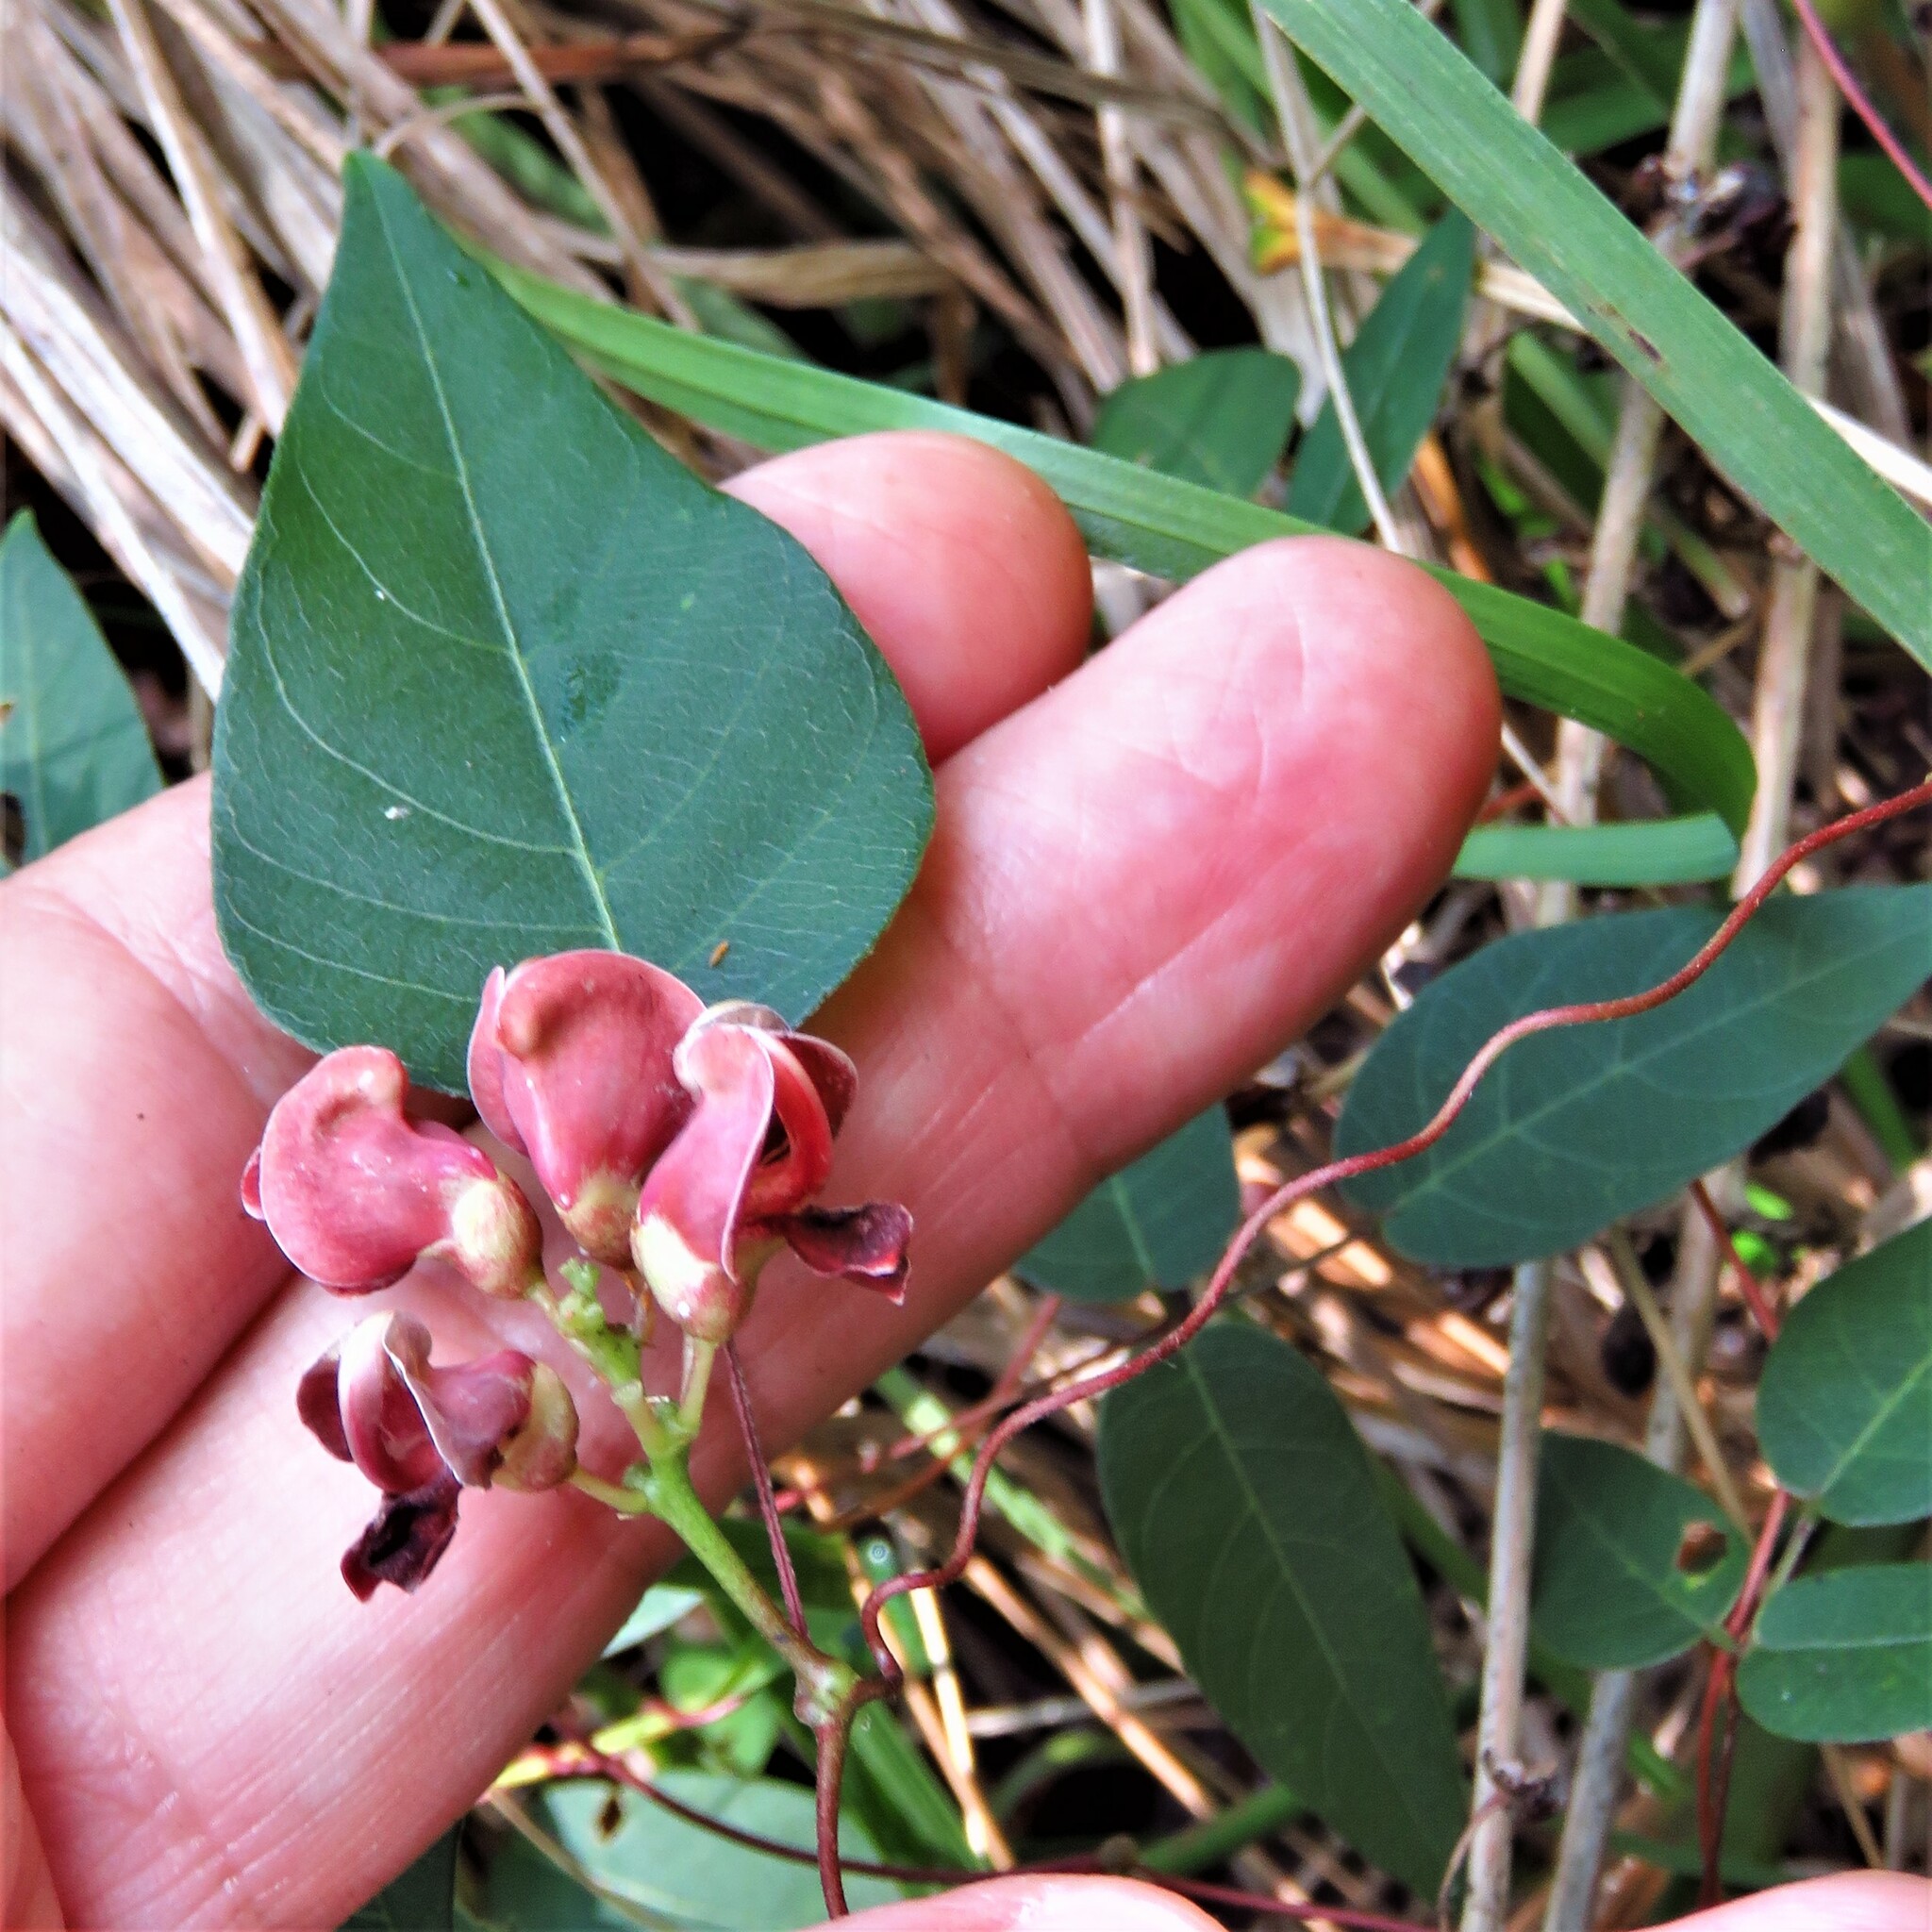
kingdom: Plantae
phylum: Tracheophyta
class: Magnoliopsida
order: Fabales
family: Fabaceae
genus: Apios
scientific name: Apios americana
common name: American potato-bean
